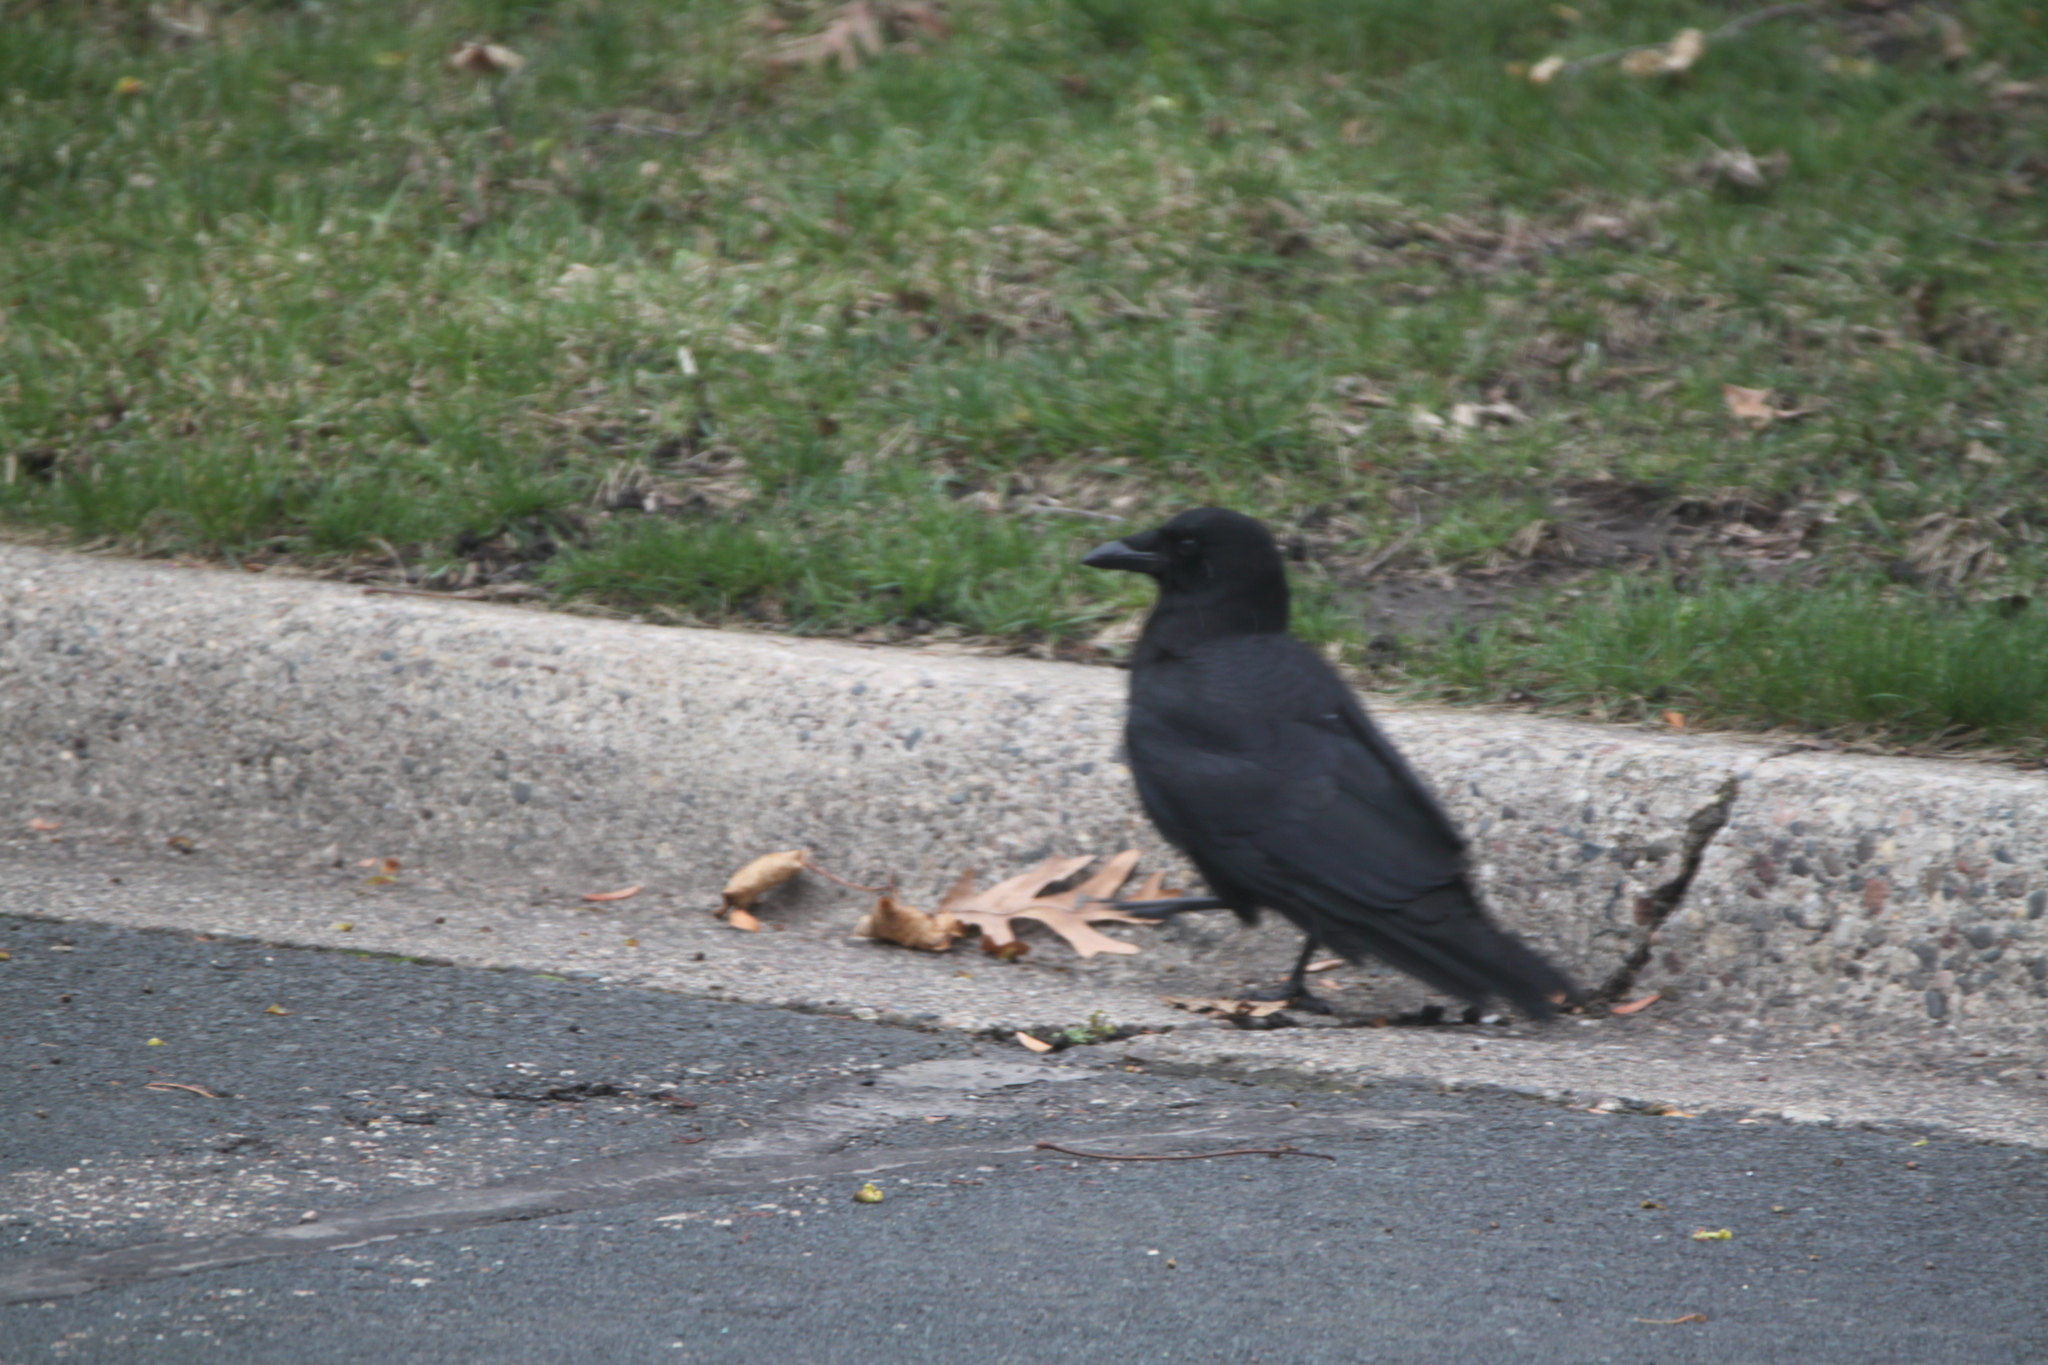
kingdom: Animalia
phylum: Chordata
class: Aves
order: Passeriformes
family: Corvidae
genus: Corvus
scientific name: Corvus brachyrhynchos
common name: American crow
